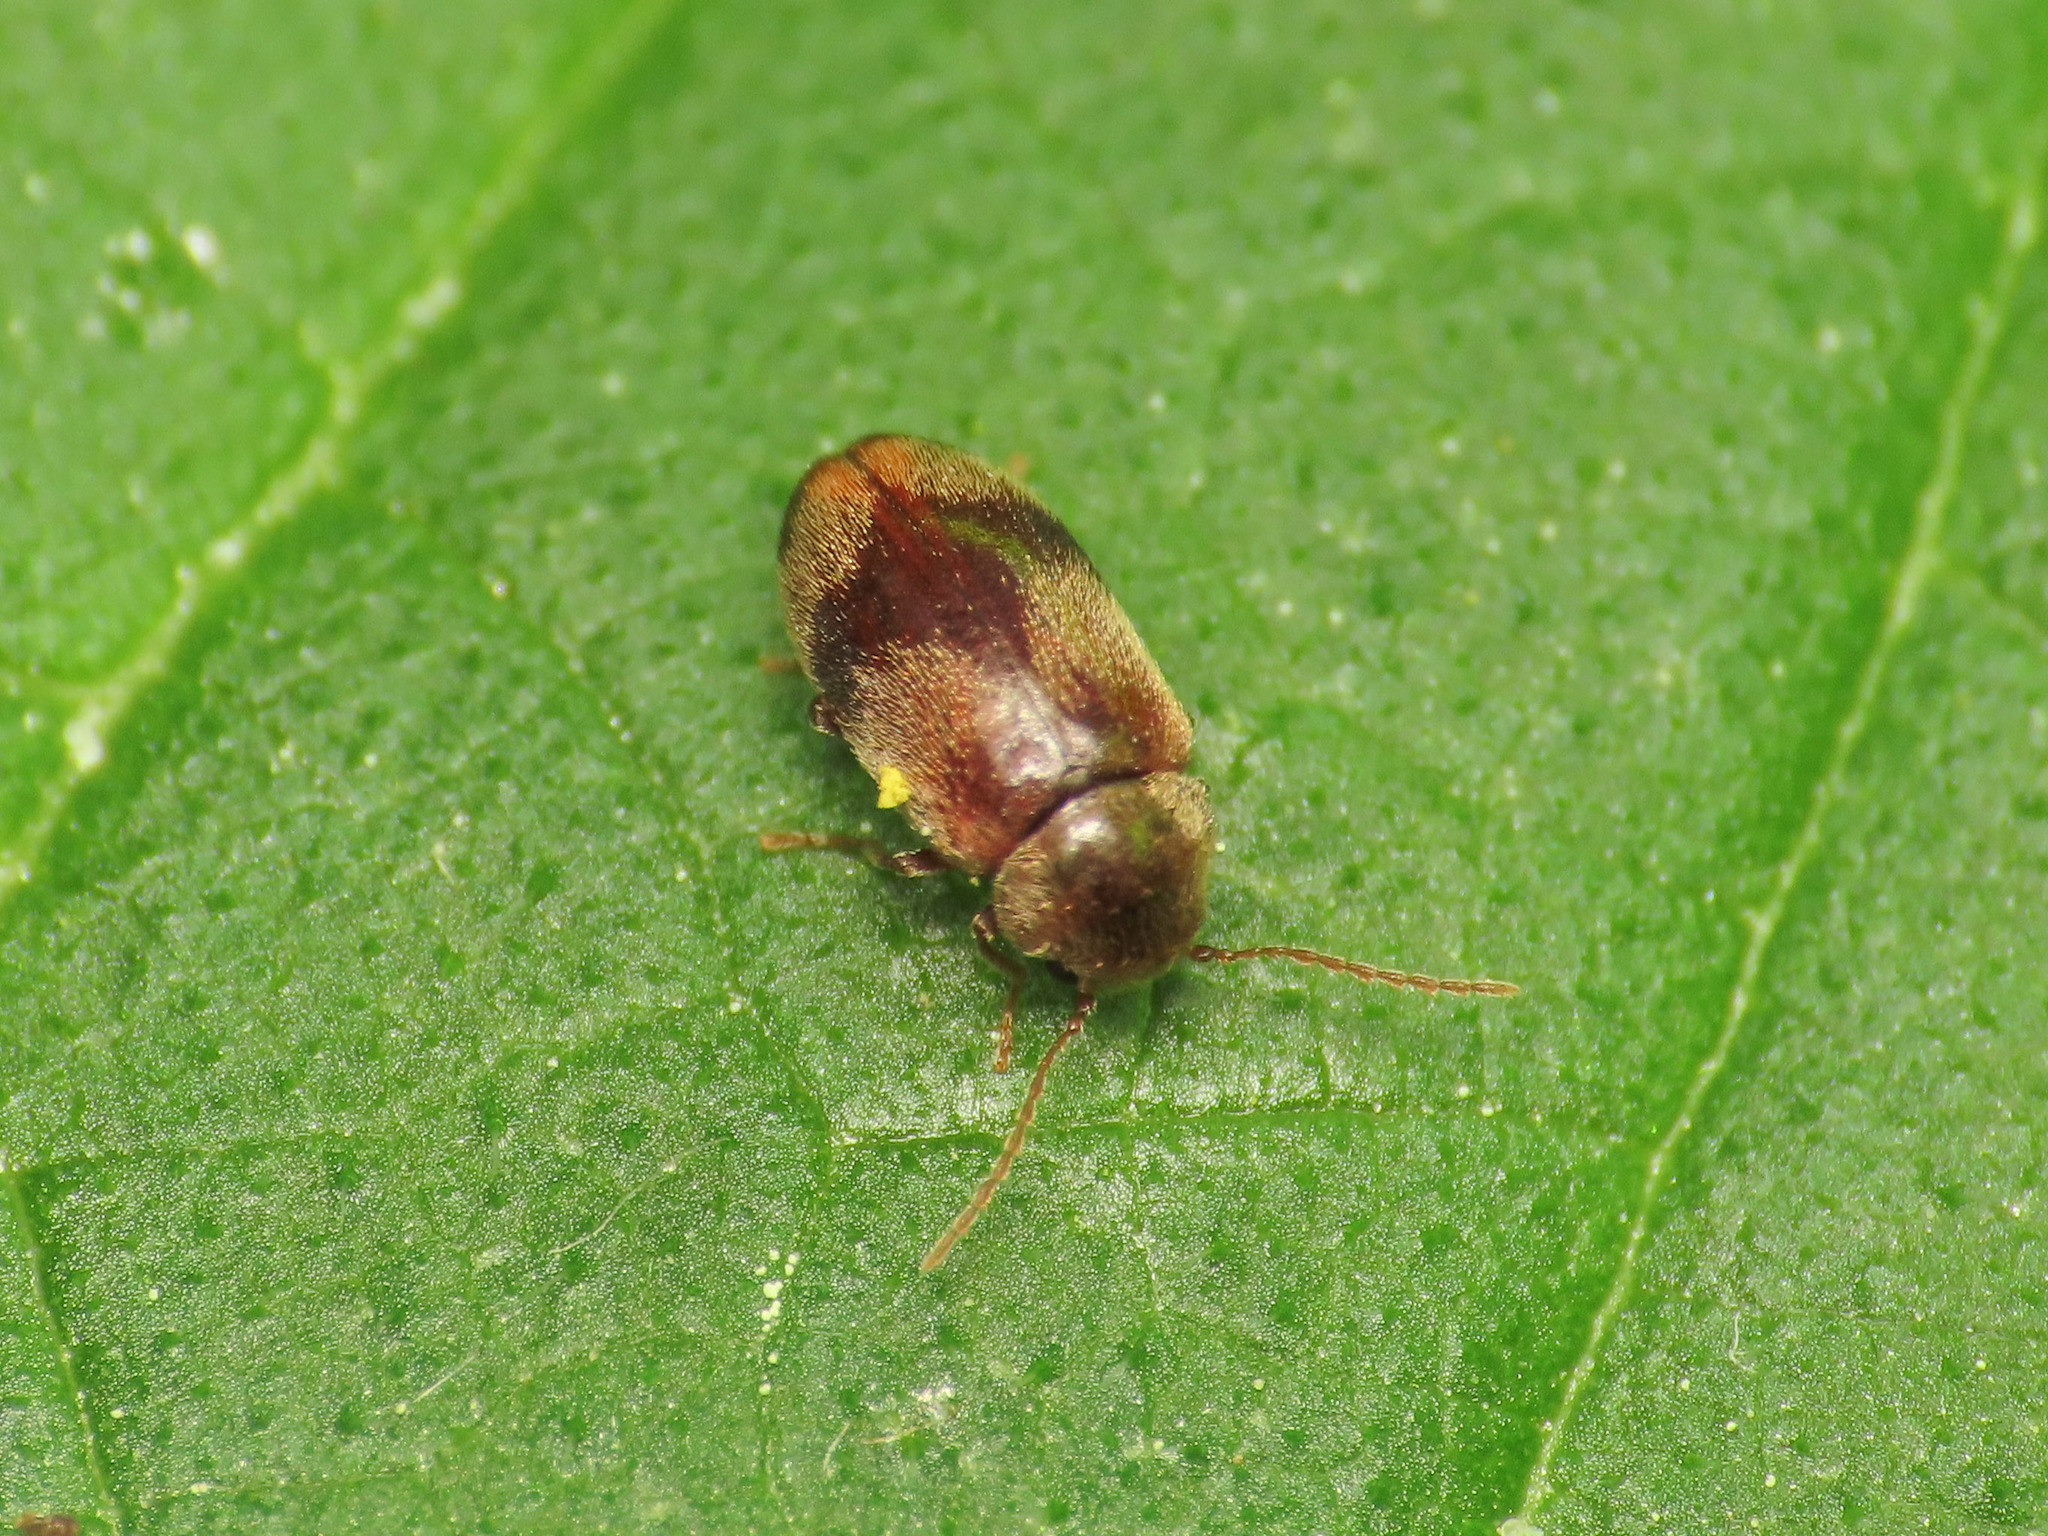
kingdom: Animalia
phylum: Arthropoda
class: Insecta
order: Coleoptera
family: Ptinidae
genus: Ochina
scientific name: Ochina ptinoides
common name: Ivy boring beetle
